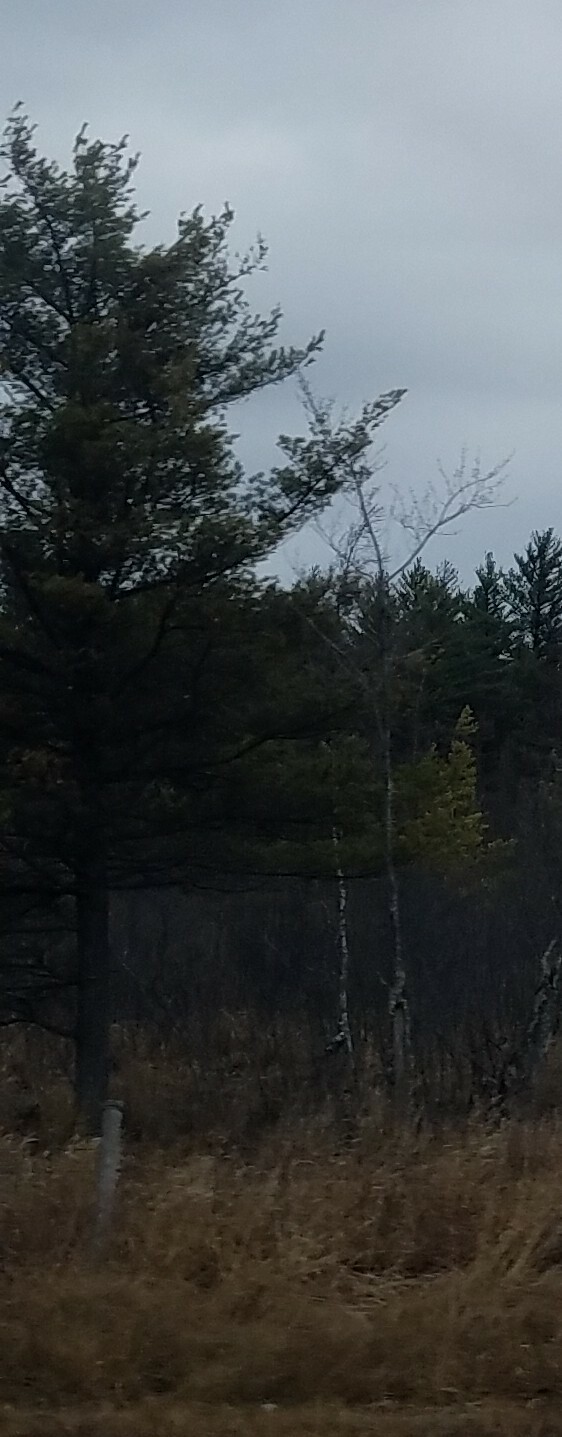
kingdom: Plantae
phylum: Tracheophyta
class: Pinopsida
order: Pinales
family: Pinaceae
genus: Pinus
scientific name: Pinus strobus
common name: Weymouth pine
